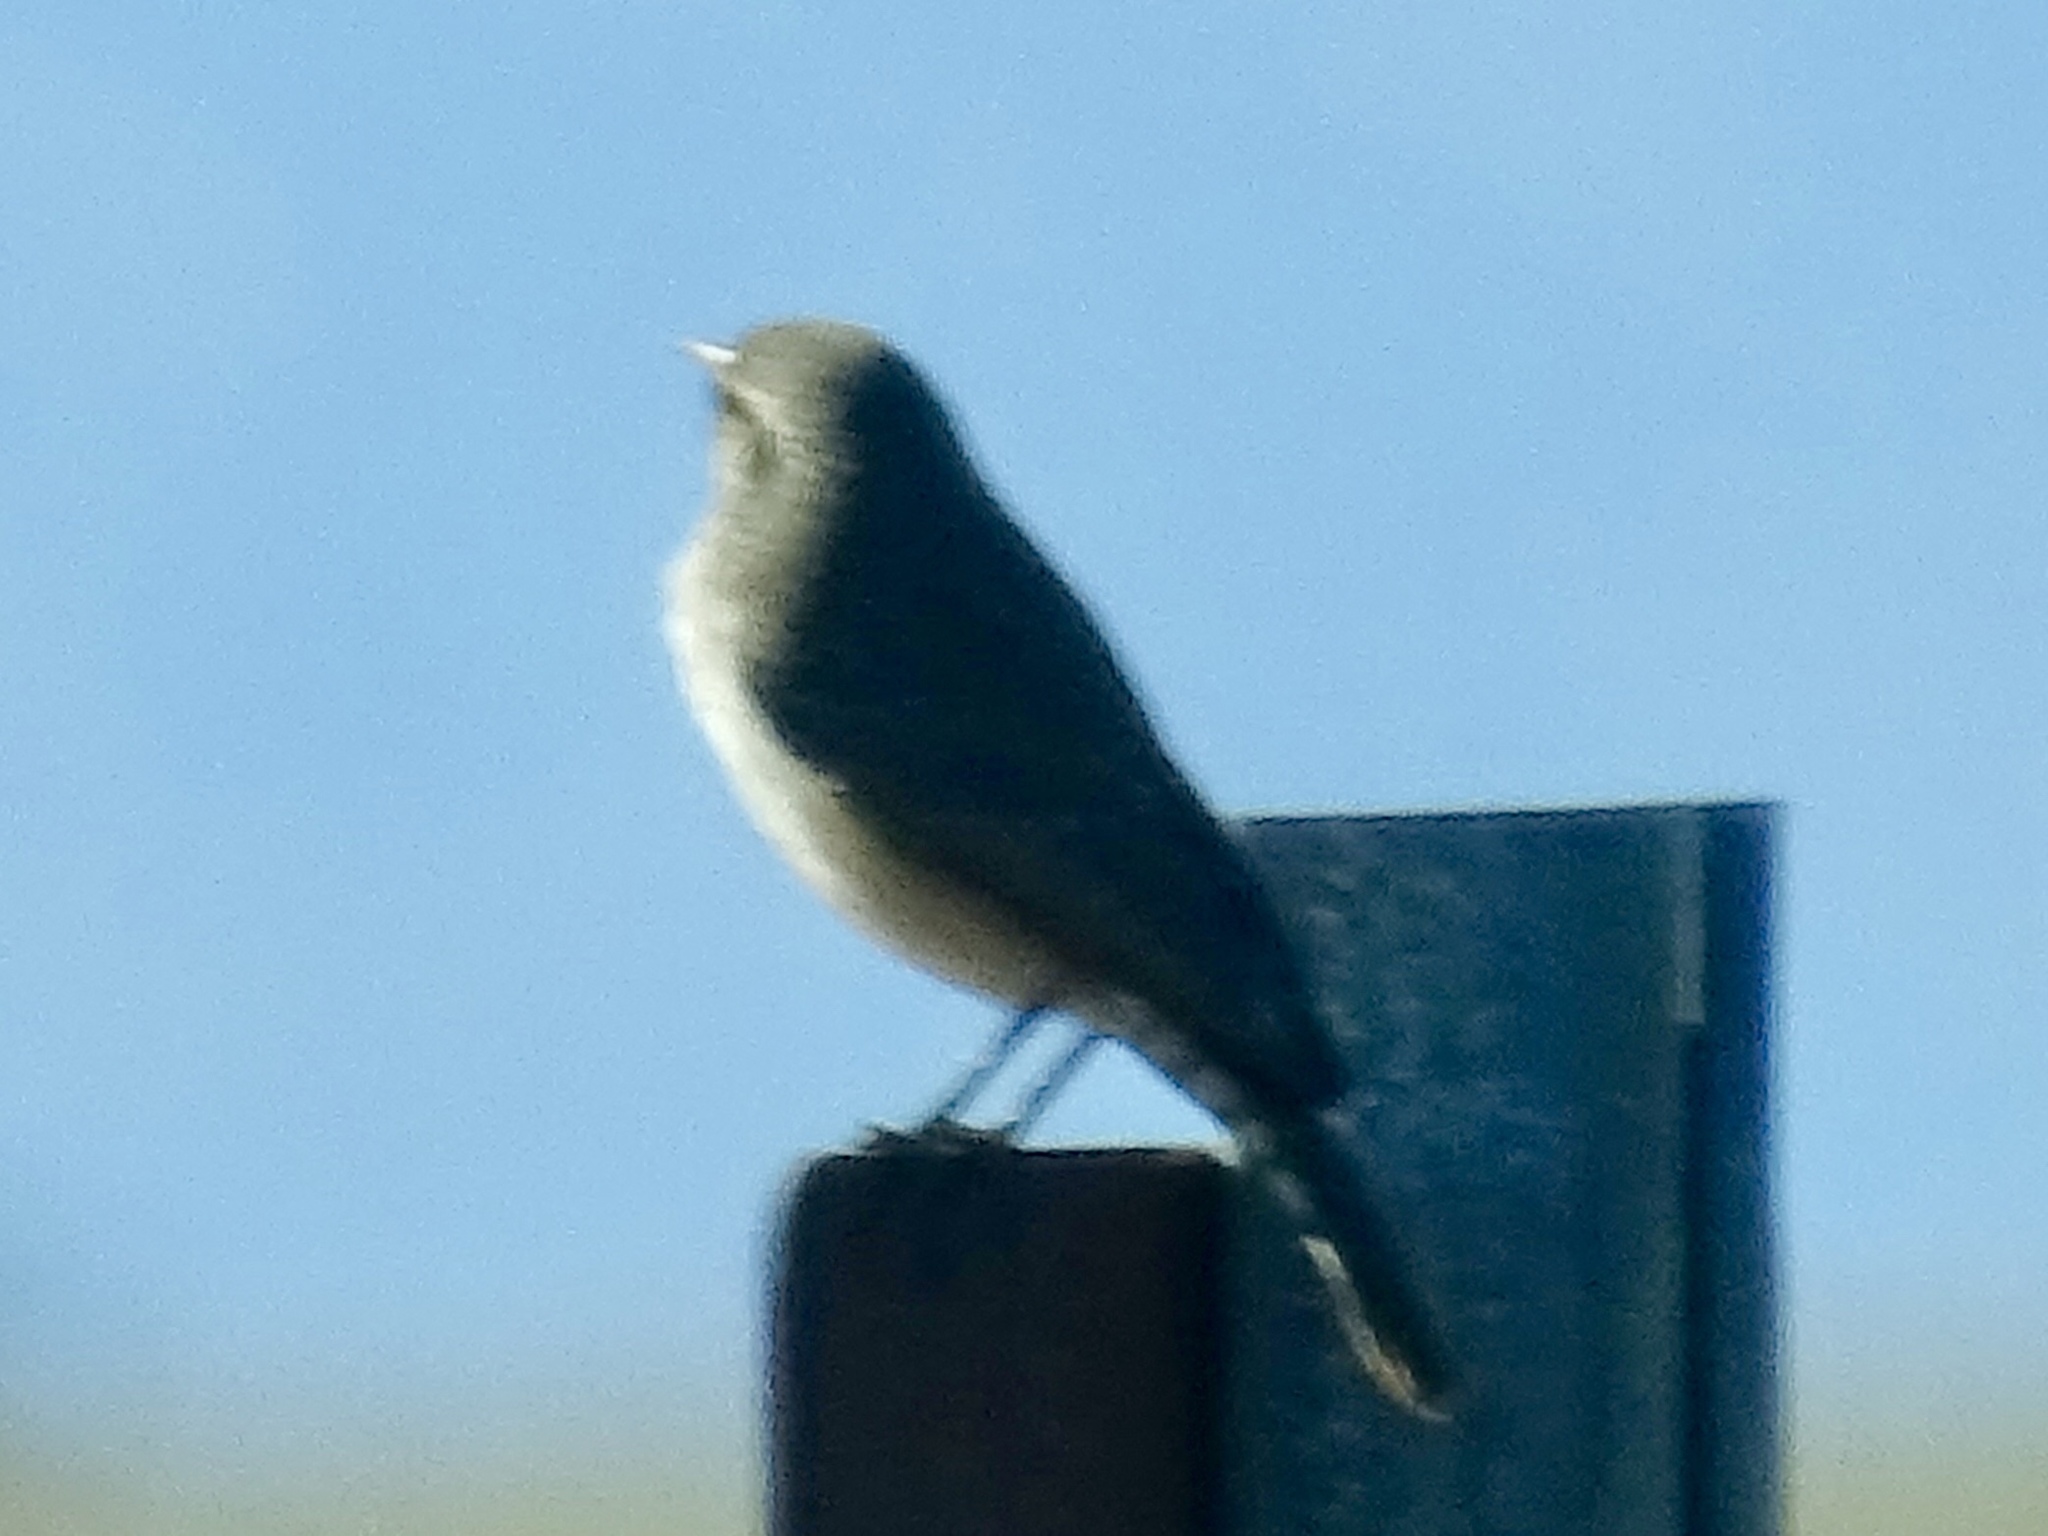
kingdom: Animalia
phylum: Chordata
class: Aves
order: Passeriformes
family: Troglodytidae
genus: Salpinctes
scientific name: Salpinctes obsoletus
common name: Rock wren
